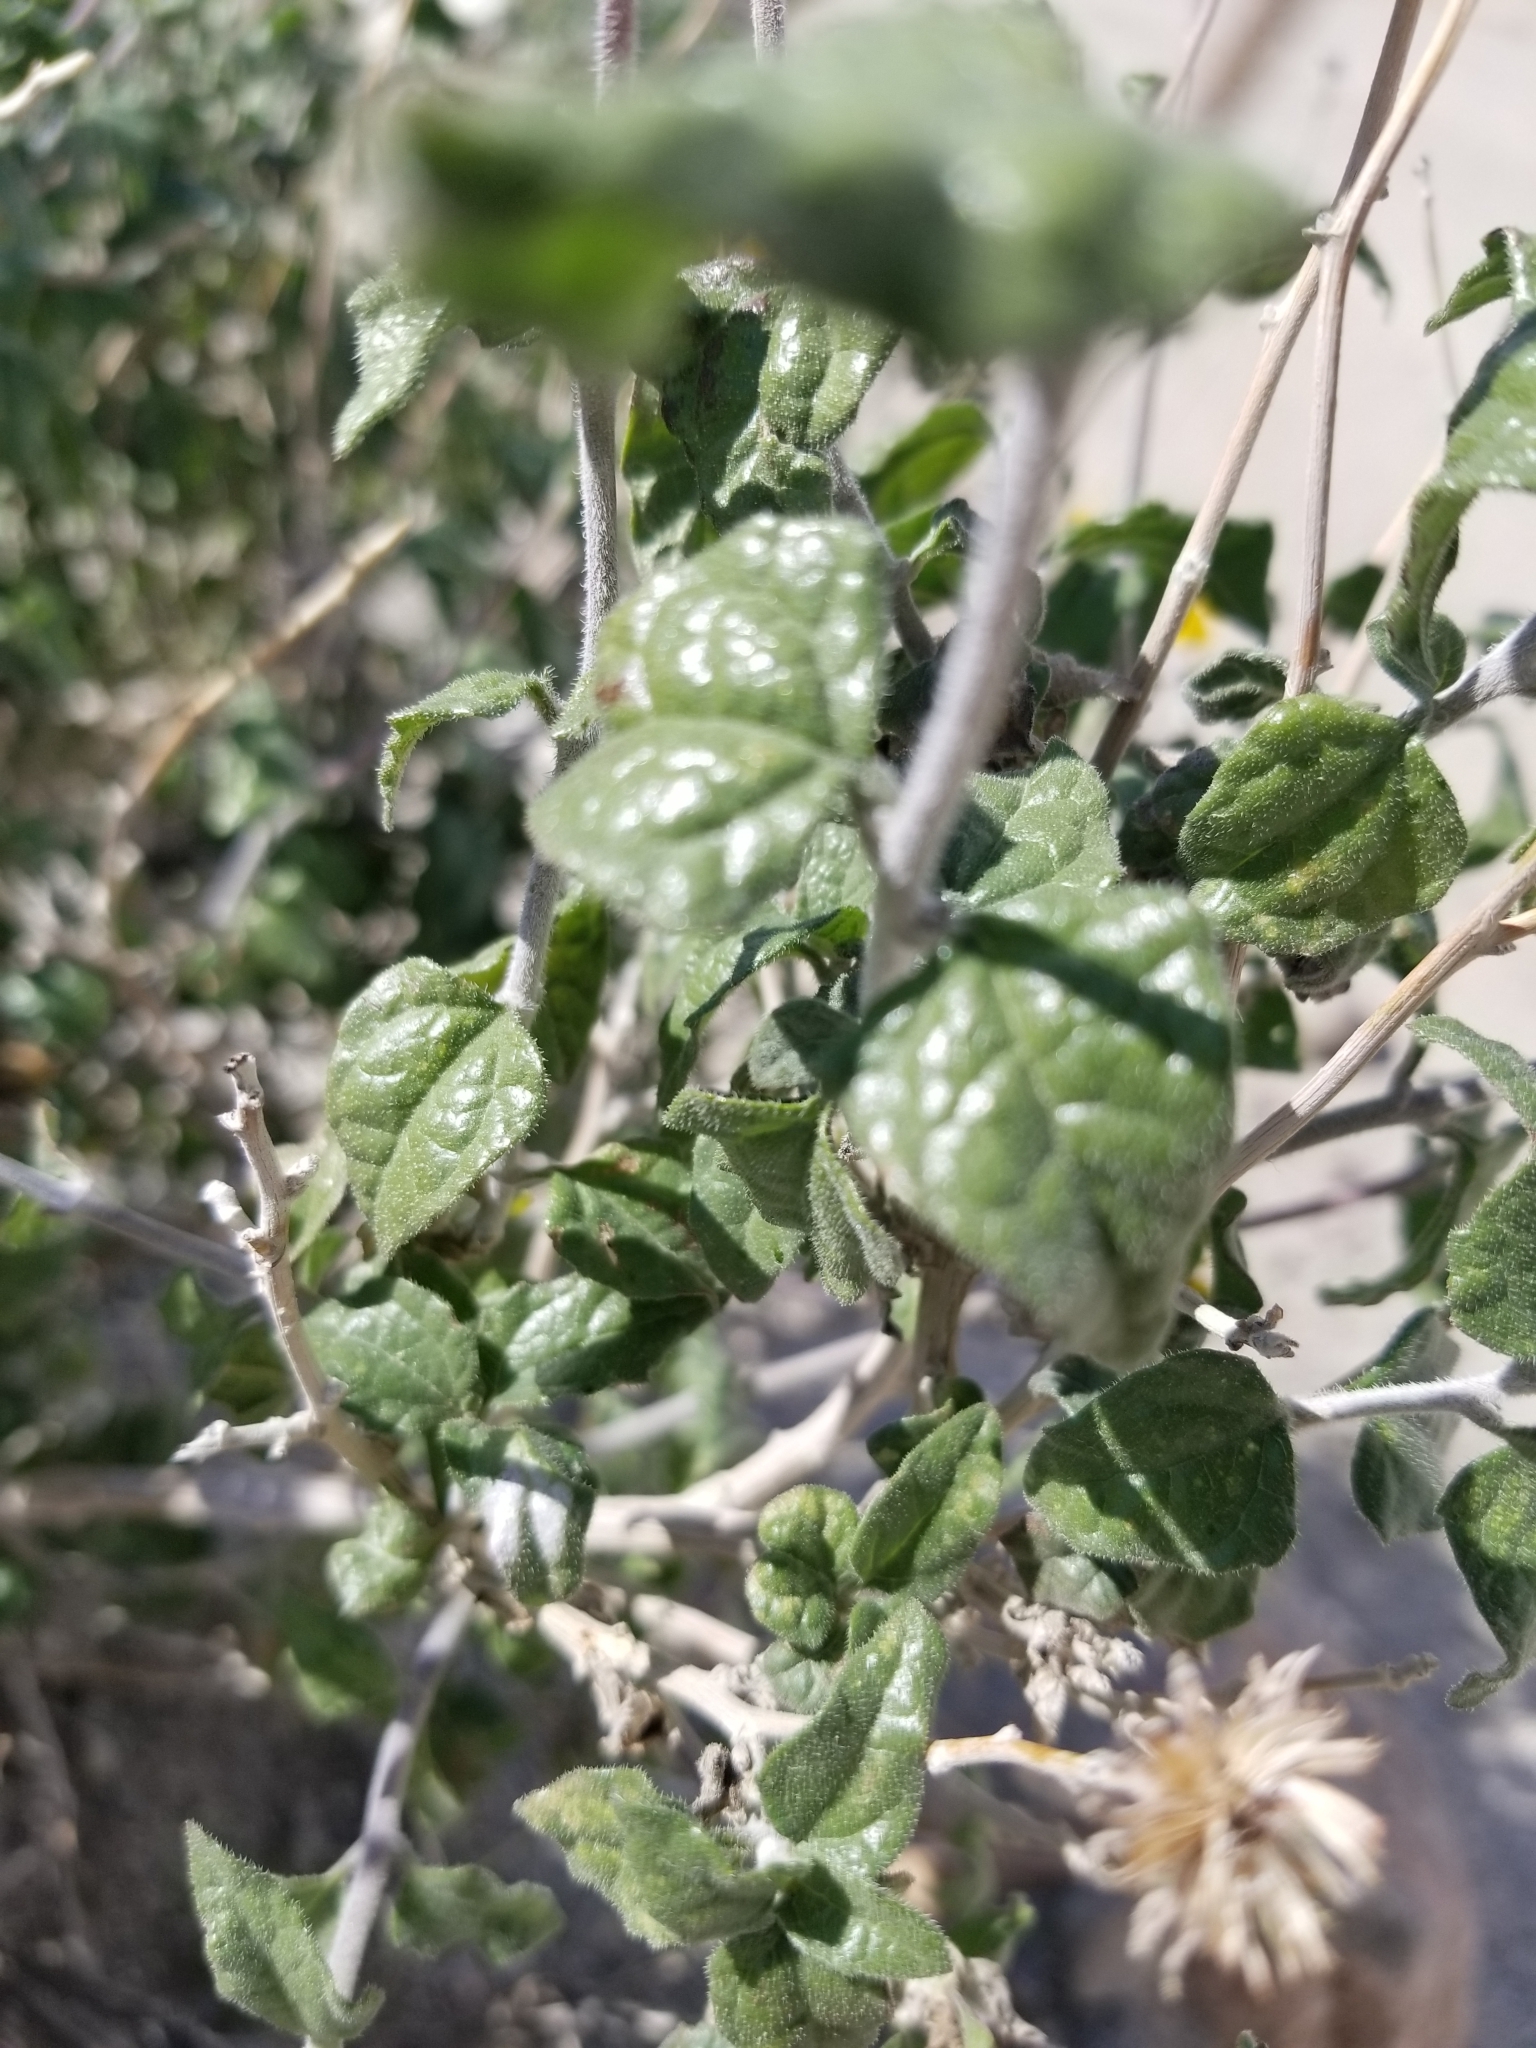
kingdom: Plantae
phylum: Tracheophyta
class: Magnoliopsida
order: Asterales
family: Asteraceae
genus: Bahiopsis
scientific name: Bahiopsis parishii
